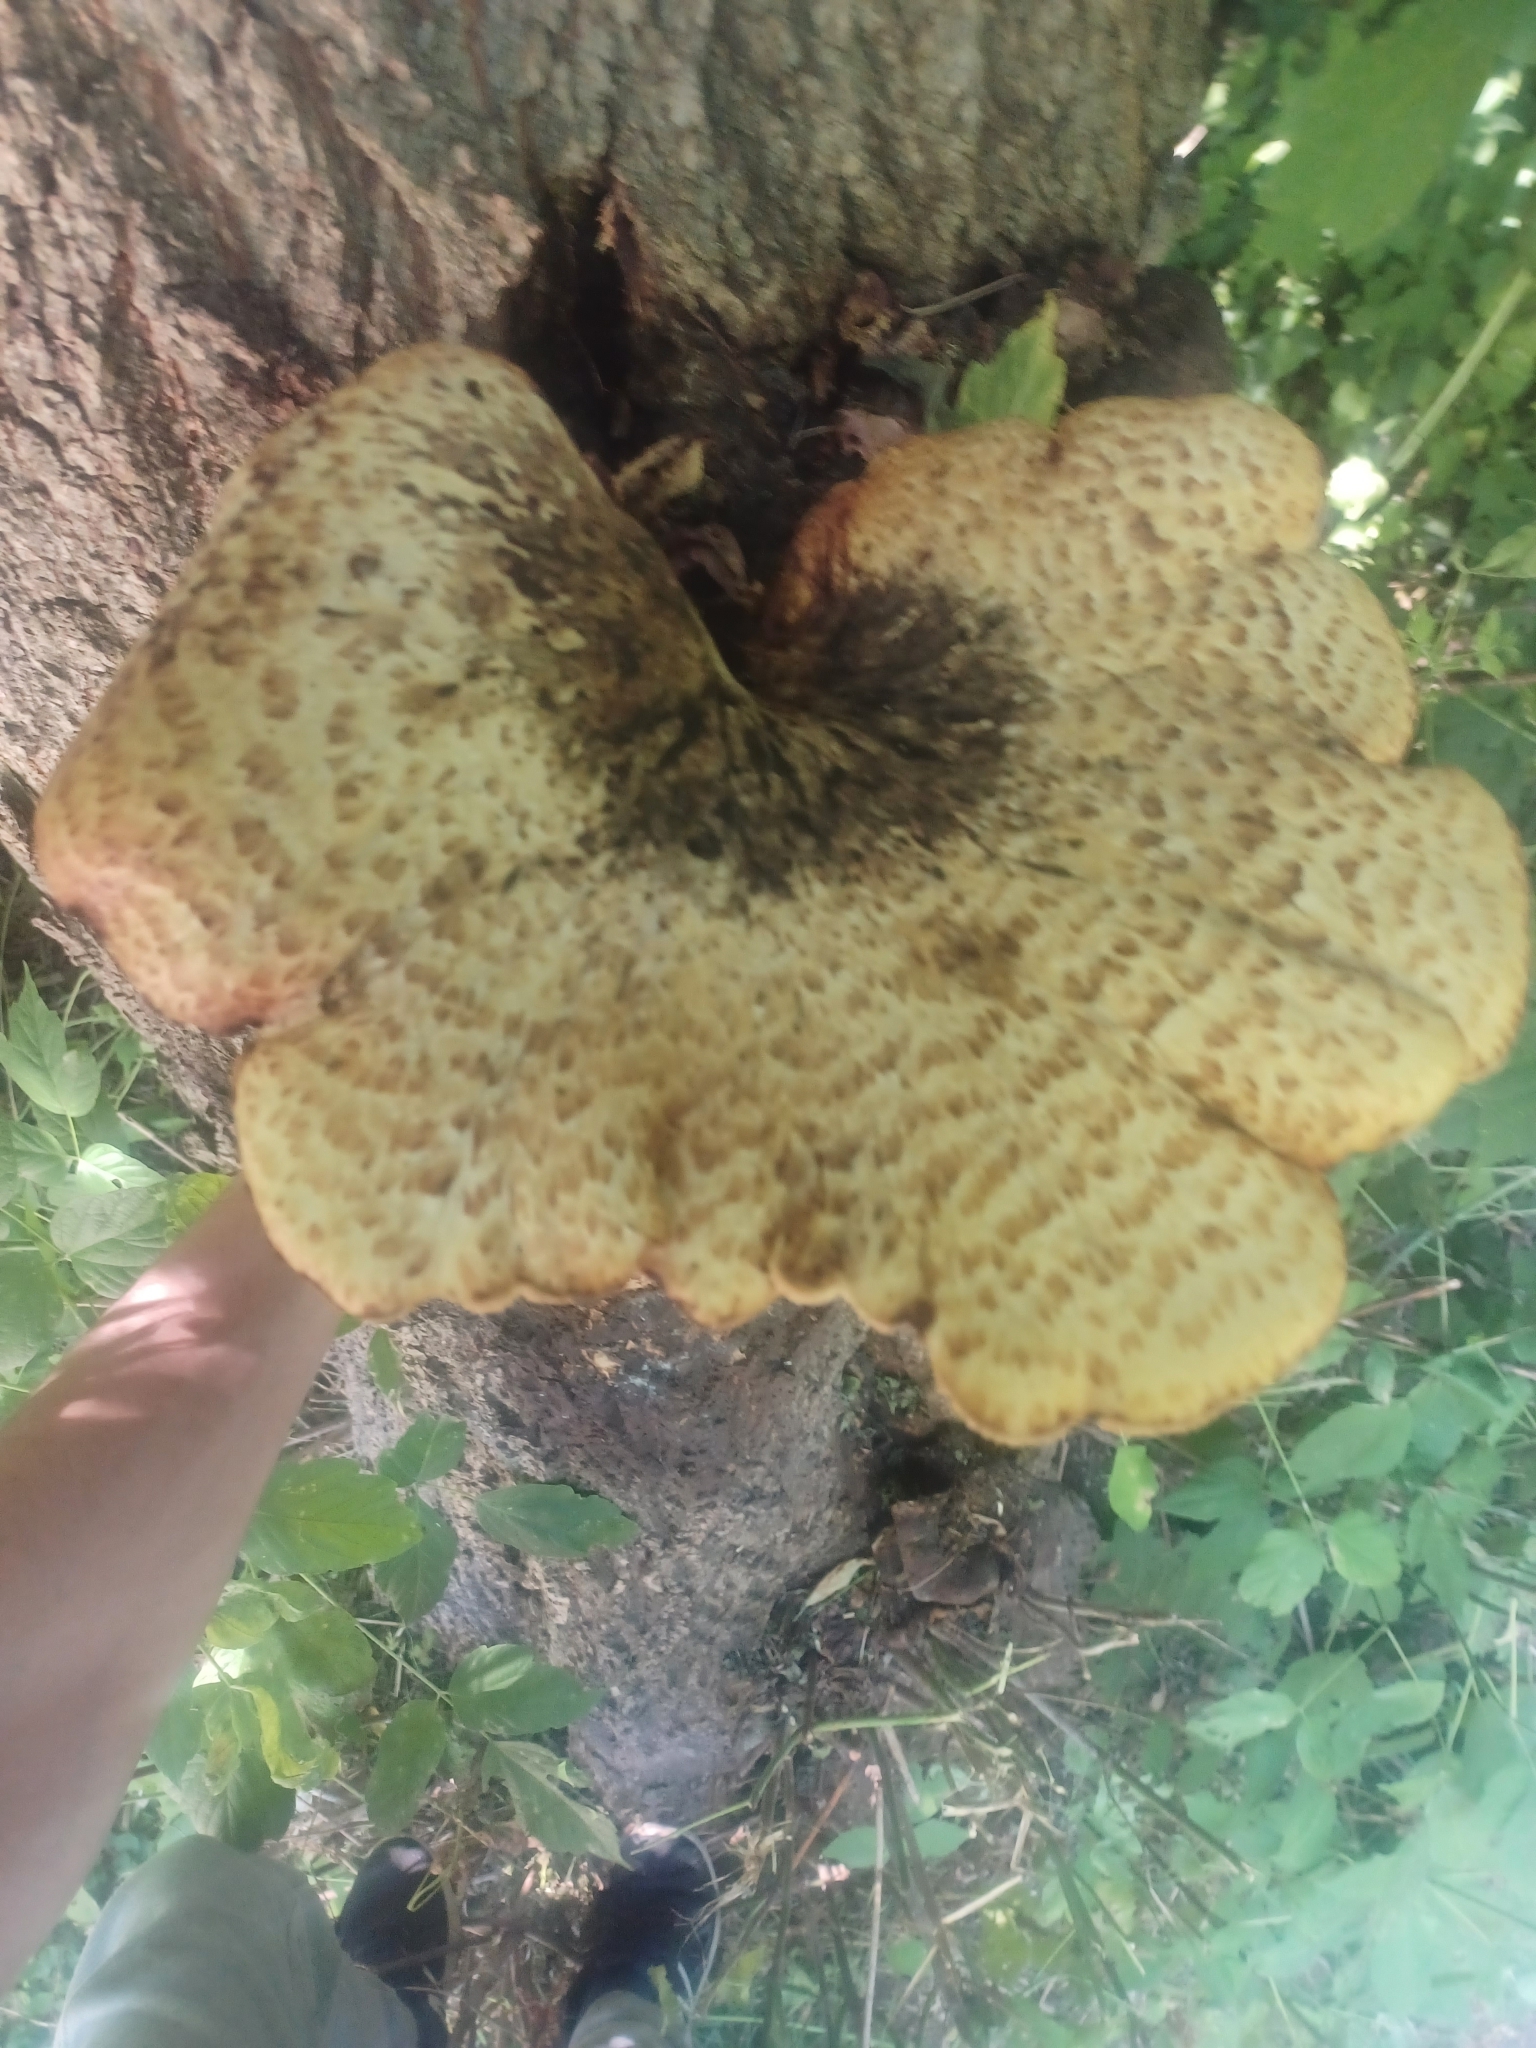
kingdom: Fungi
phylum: Basidiomycota
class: Agaricomycetes
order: Polyporales
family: Polyporaceae
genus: Cerioporus
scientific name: Cerioporus squamosus
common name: Dryad's saddle
